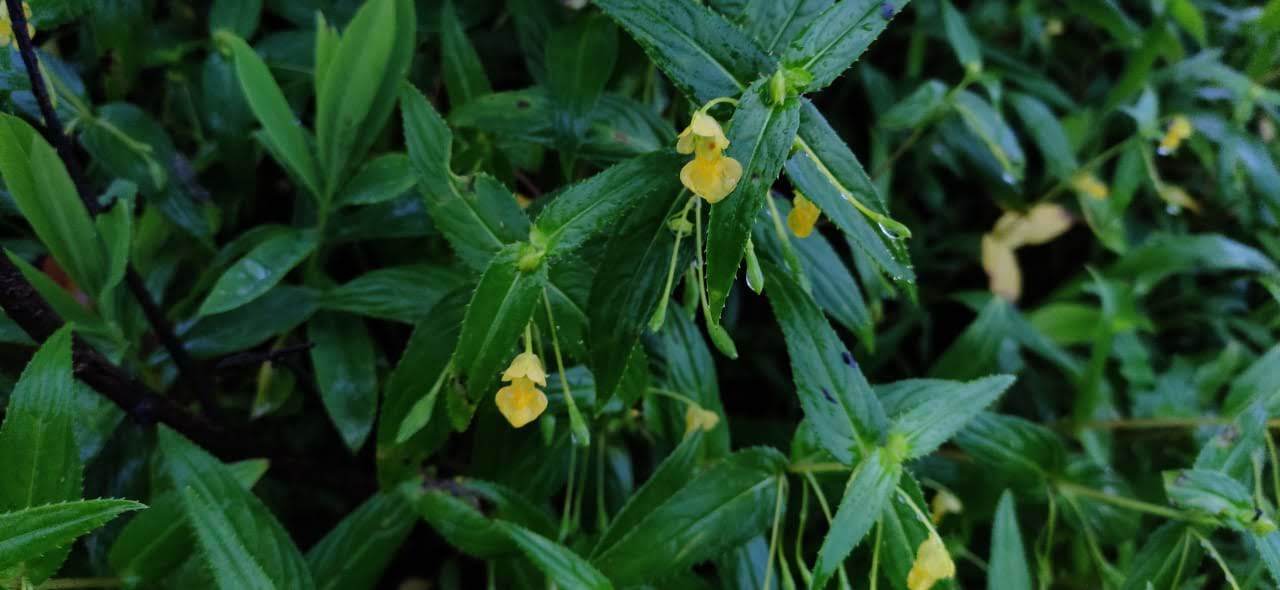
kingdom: Plantae
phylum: Tracheophyta
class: Magnoliopsida
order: Ericales
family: Balsaminaceae
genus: Impatiens
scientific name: Impatiens dalzellii
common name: Dalzell's yellow balsam
